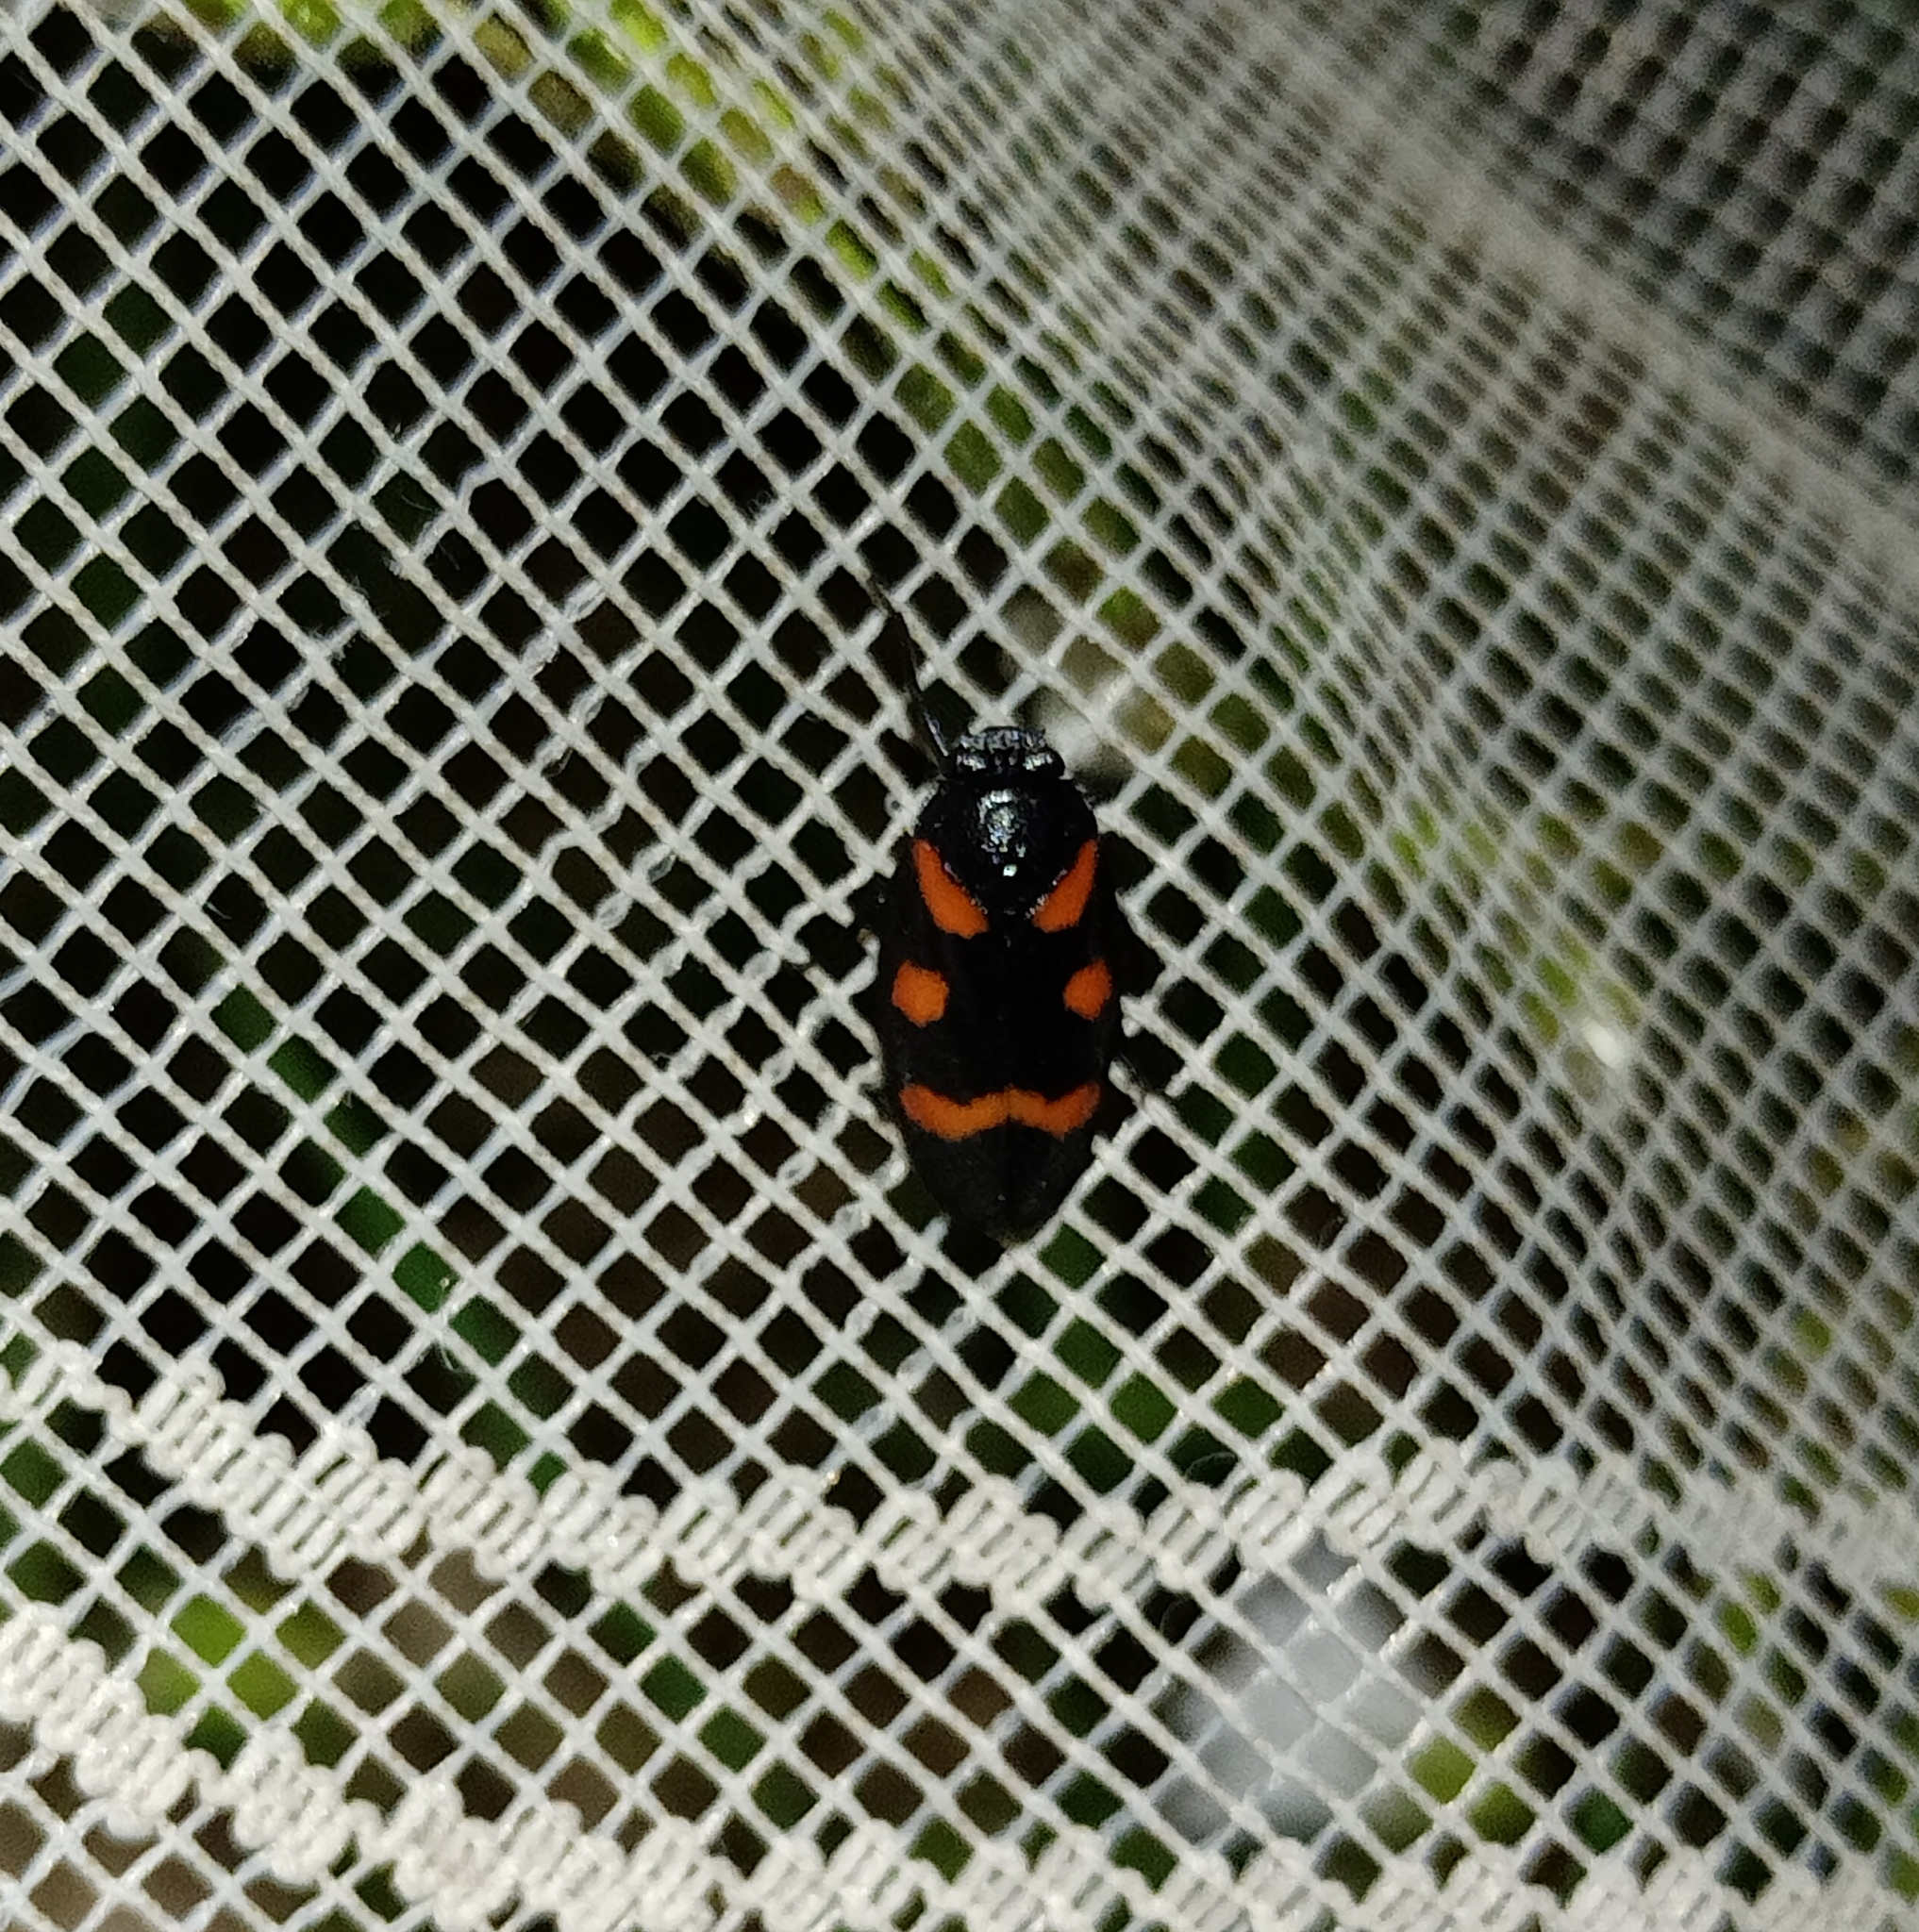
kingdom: Animalia
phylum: Arthropoda
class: Insecta
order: Hemiptera
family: Cercopidae
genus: Cercopis
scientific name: Cercopis sanguinolenta
